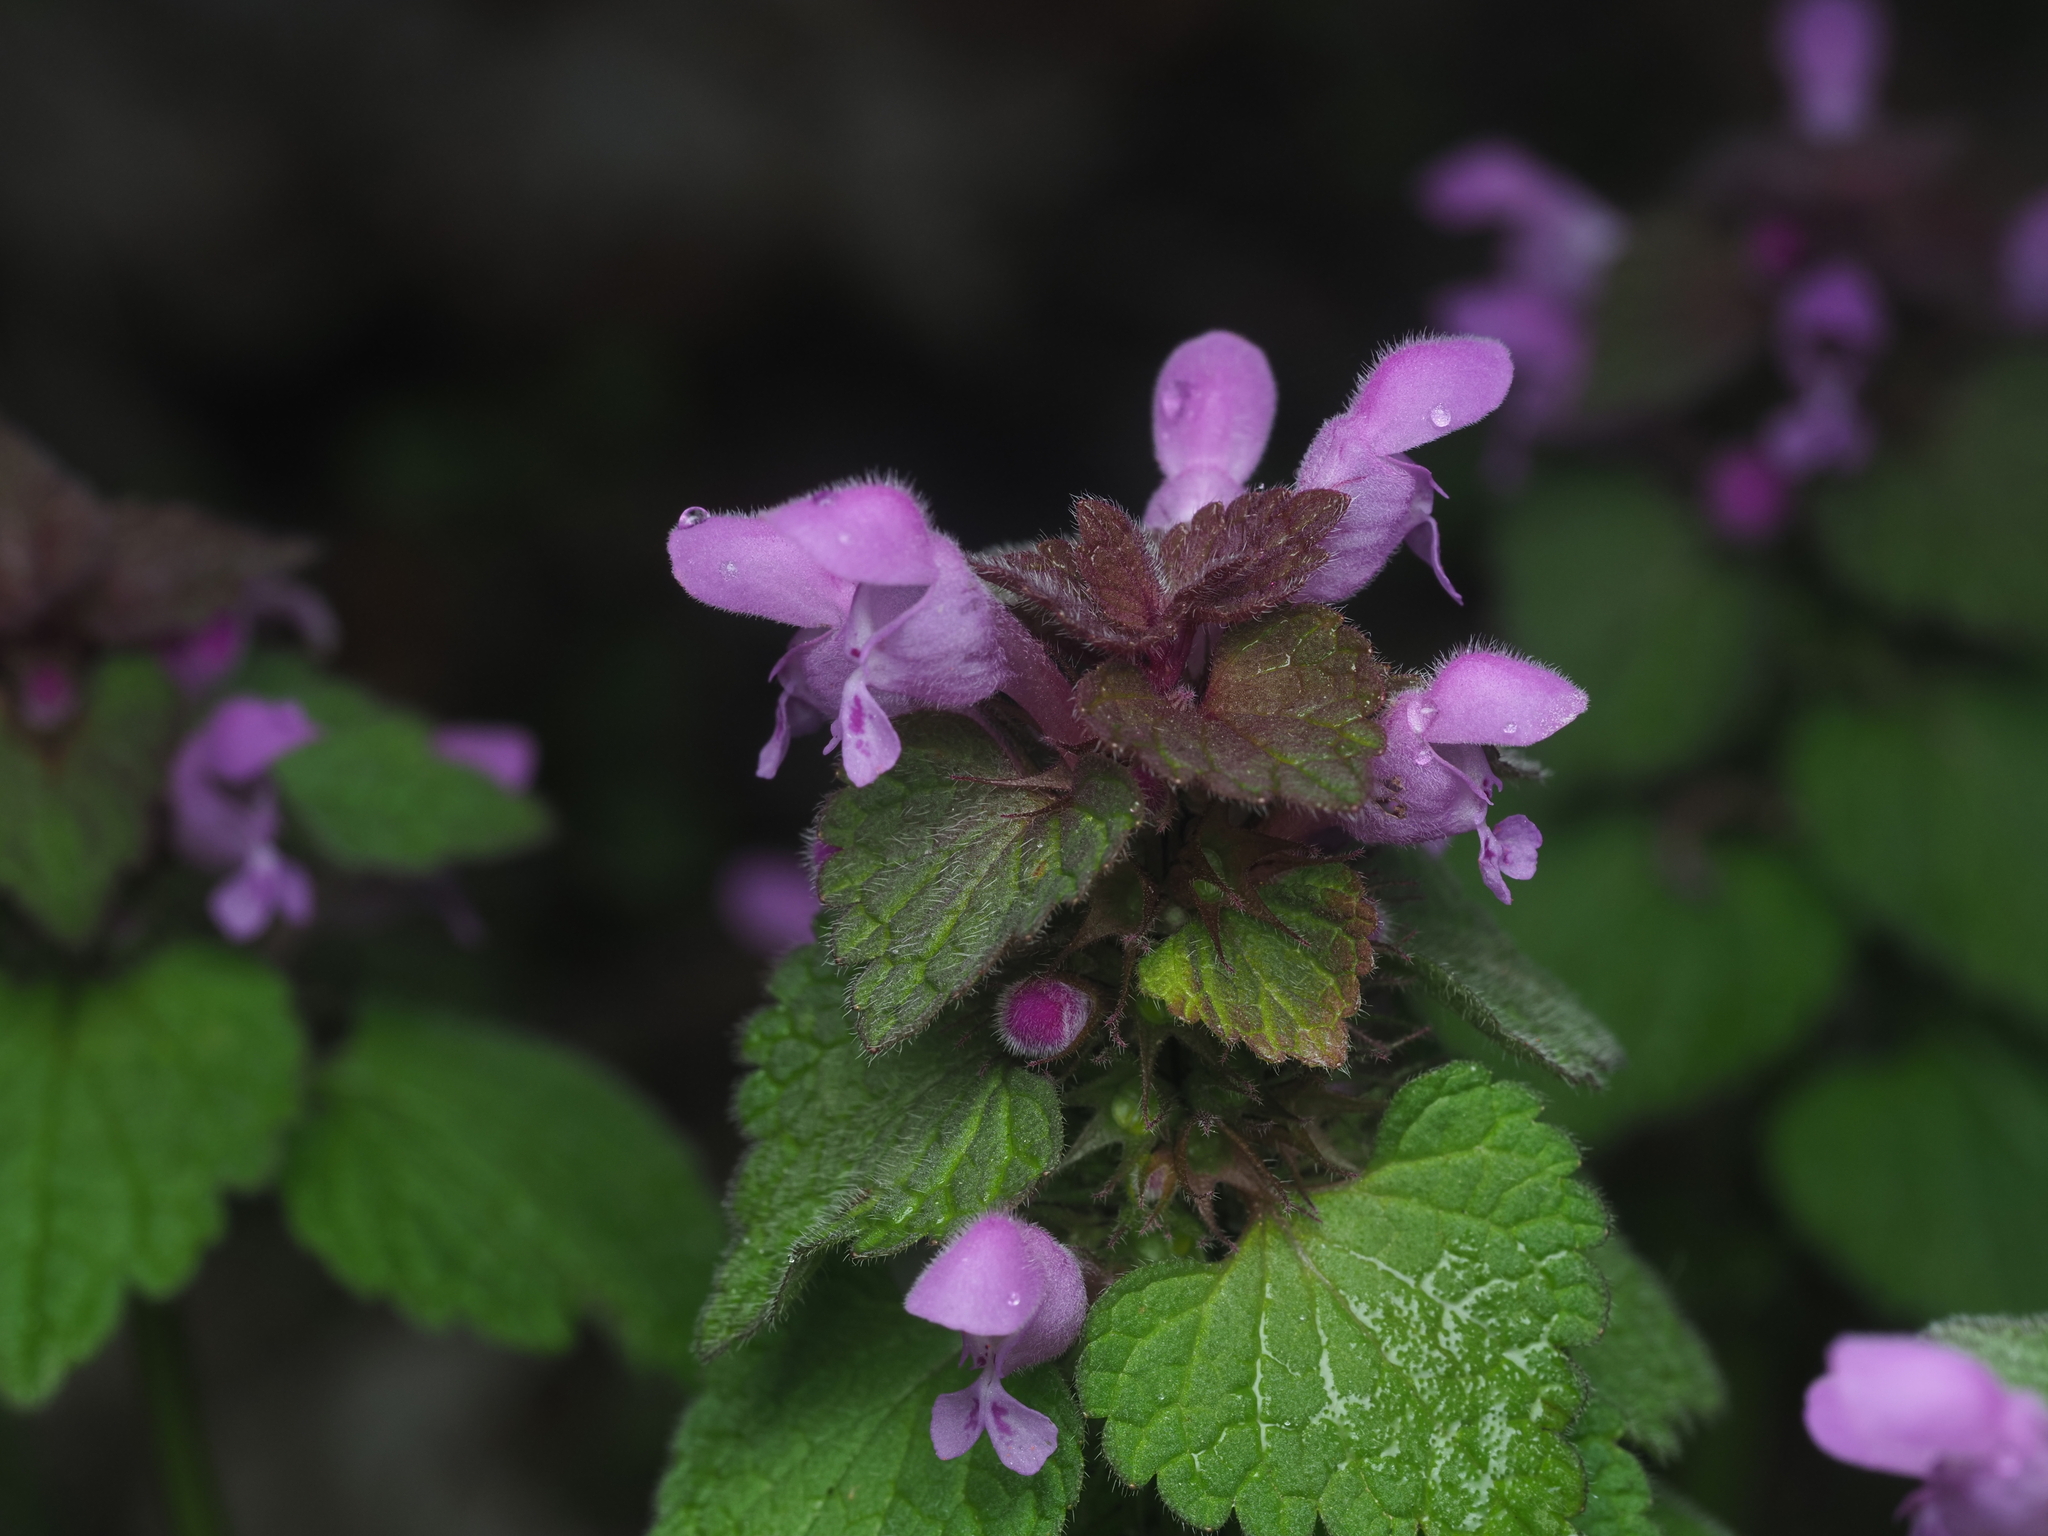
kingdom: Plantae
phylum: Tracheophyta
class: Magnoliopsida
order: Lamiales
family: Lamiaceae
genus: Lamium
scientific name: Lamium purpureum
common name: Red dead-nettle
